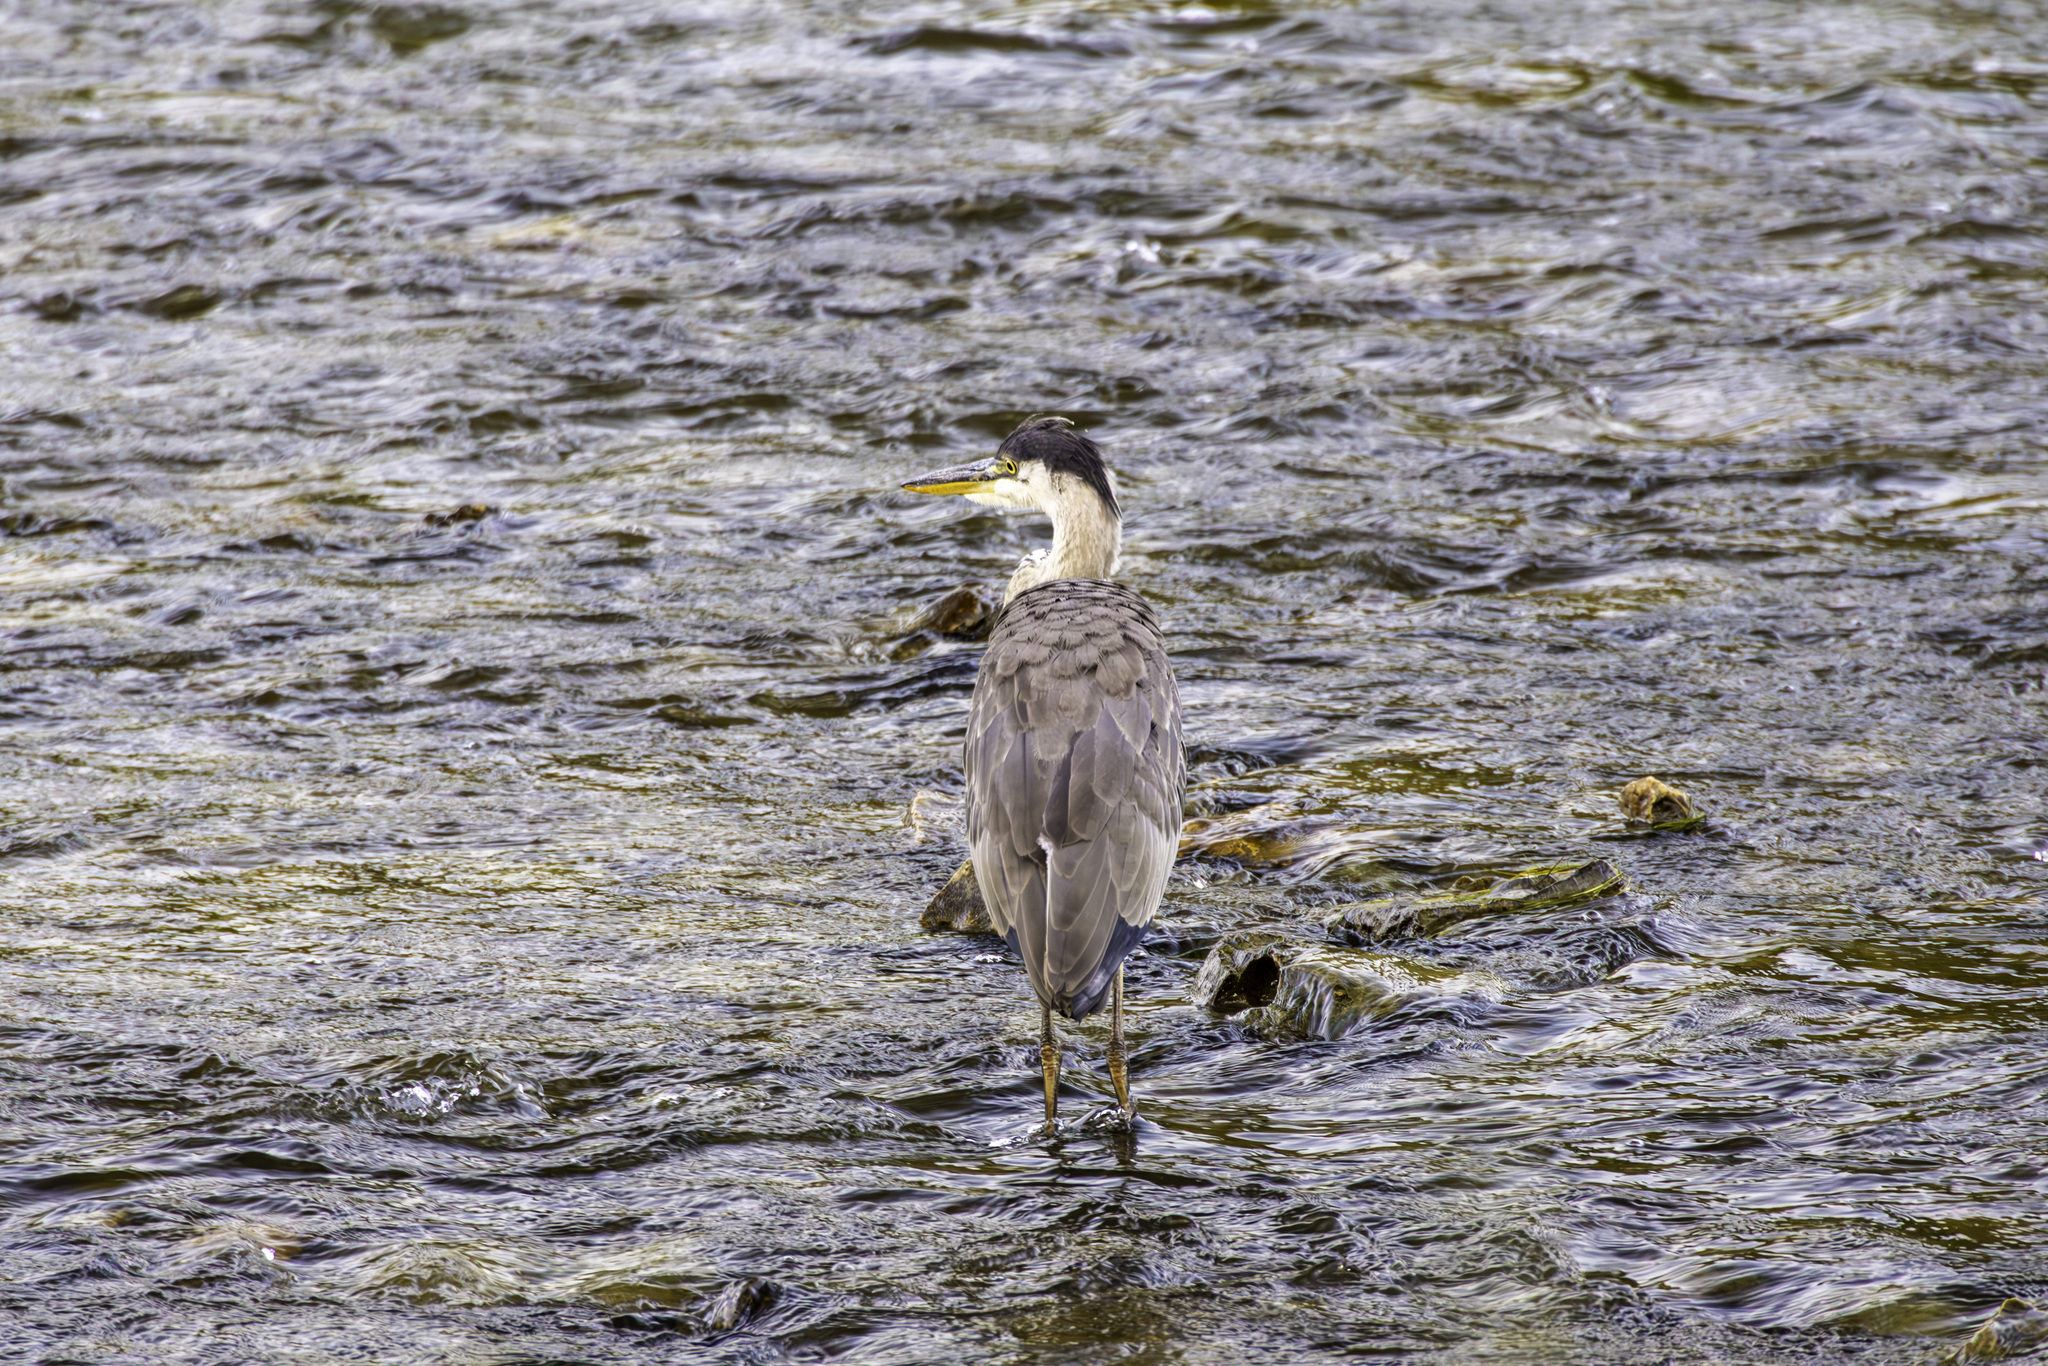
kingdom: Animalia
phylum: Chordata
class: Aves
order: Pelecaniformes
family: Ardeidae
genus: Ardea
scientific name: Ardea herodias
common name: Great blue heron
